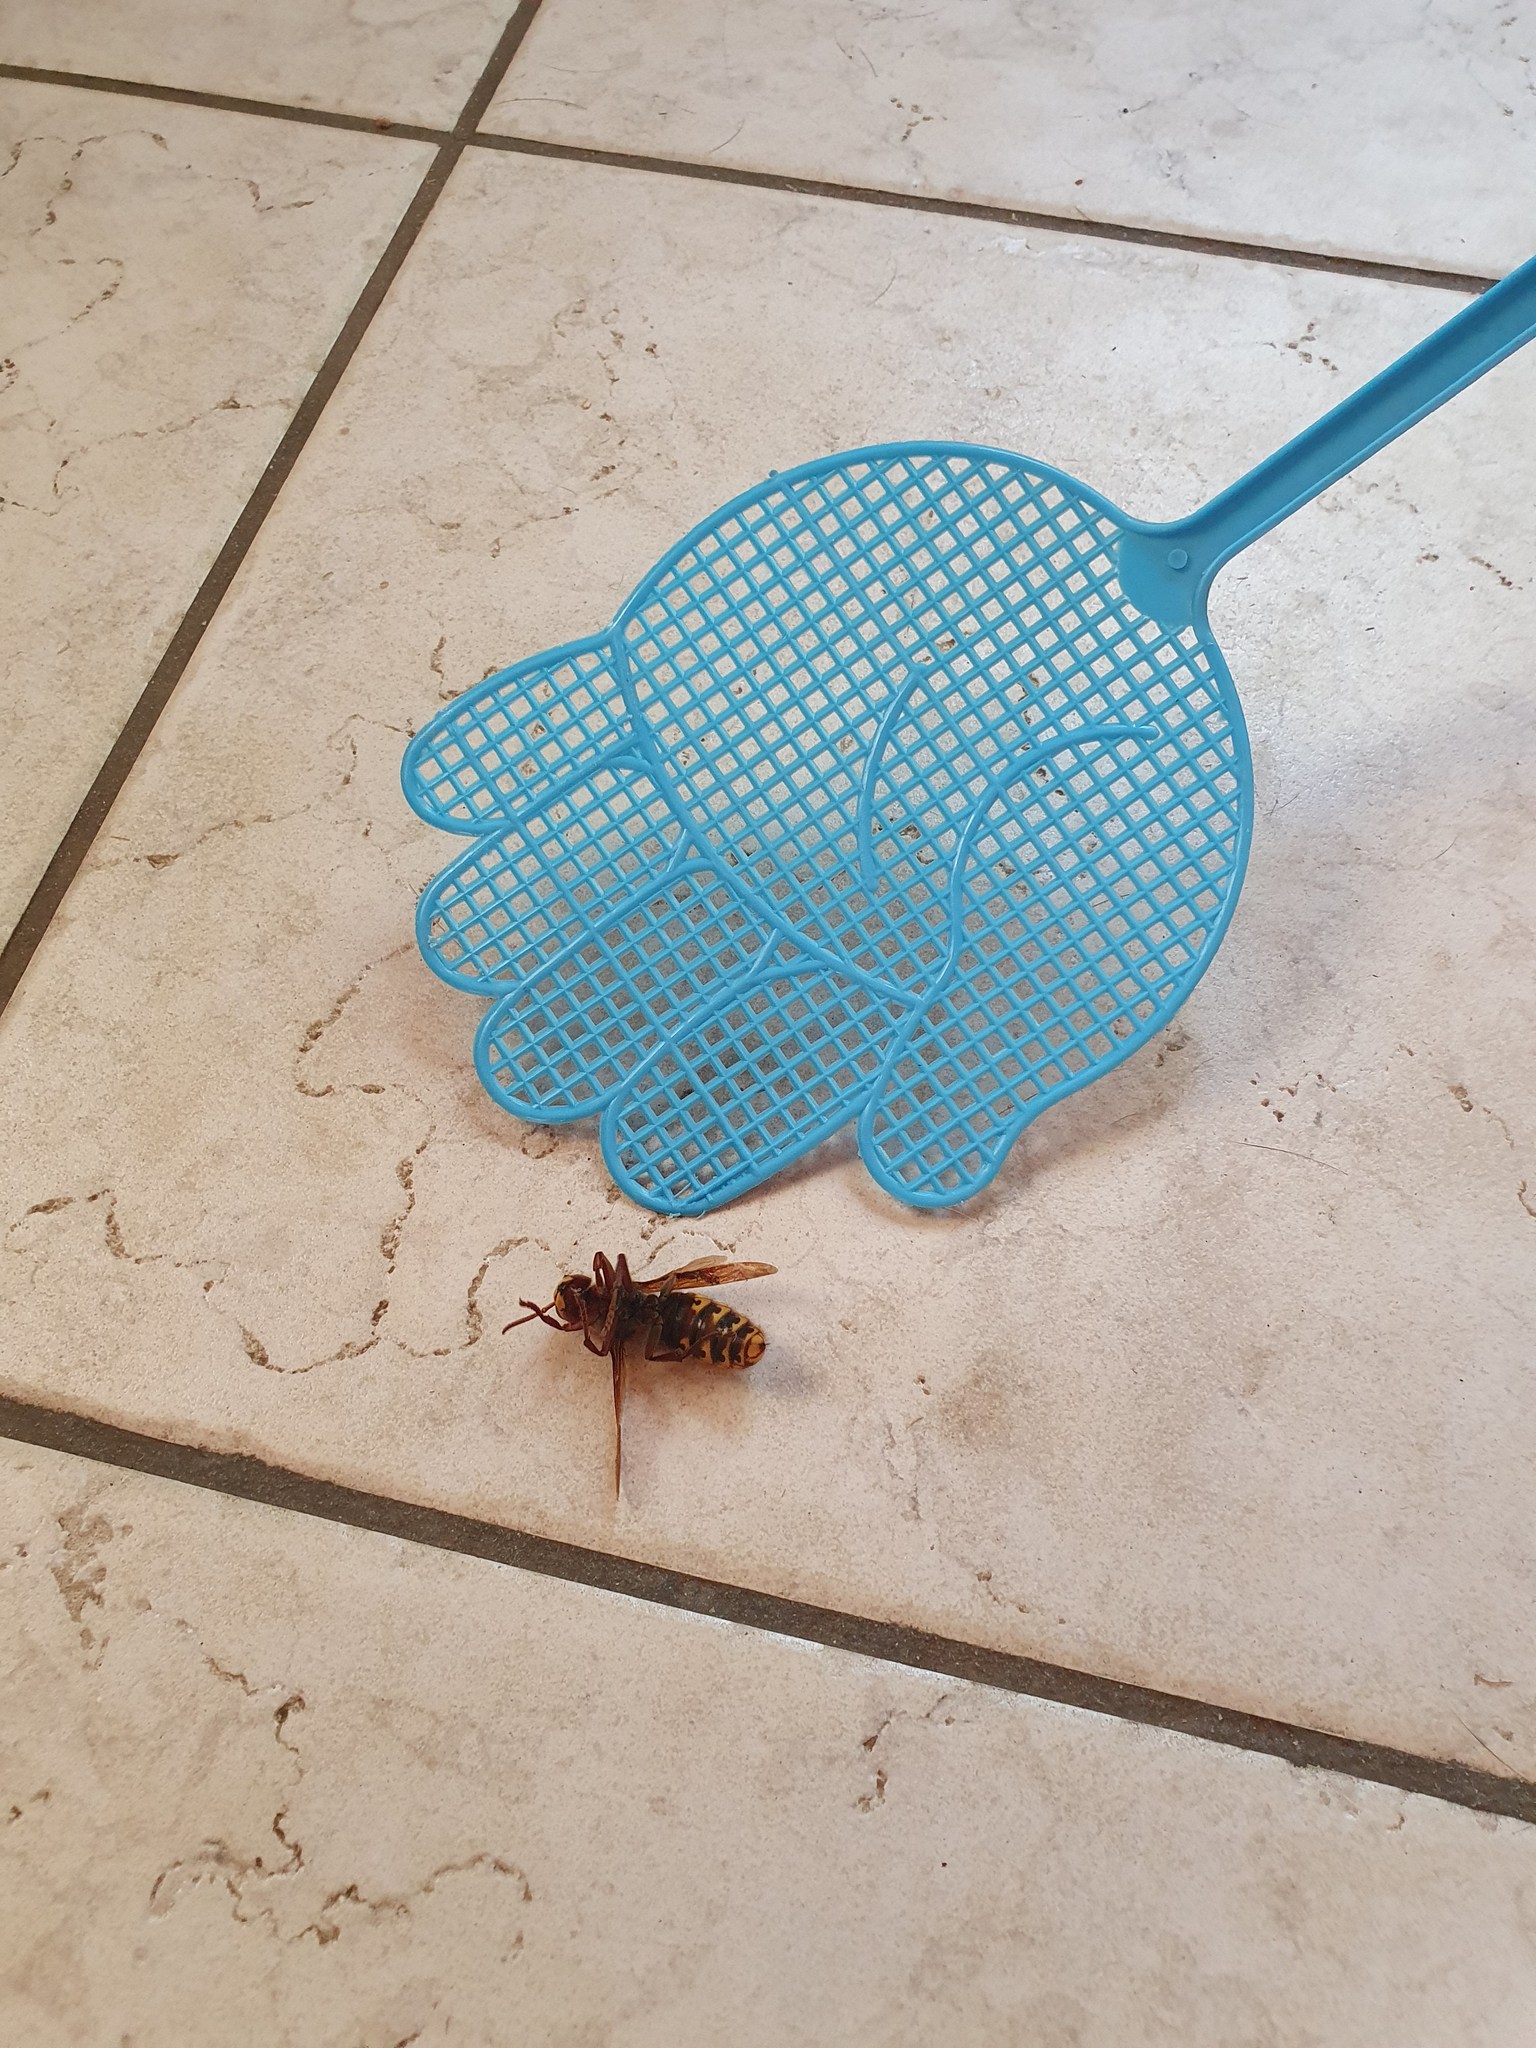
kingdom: Animalia
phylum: Arthropoda
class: Insecta
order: Hymenoptera
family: Vespidae
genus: Vespa
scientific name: Vespa crabro
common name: Hornet
